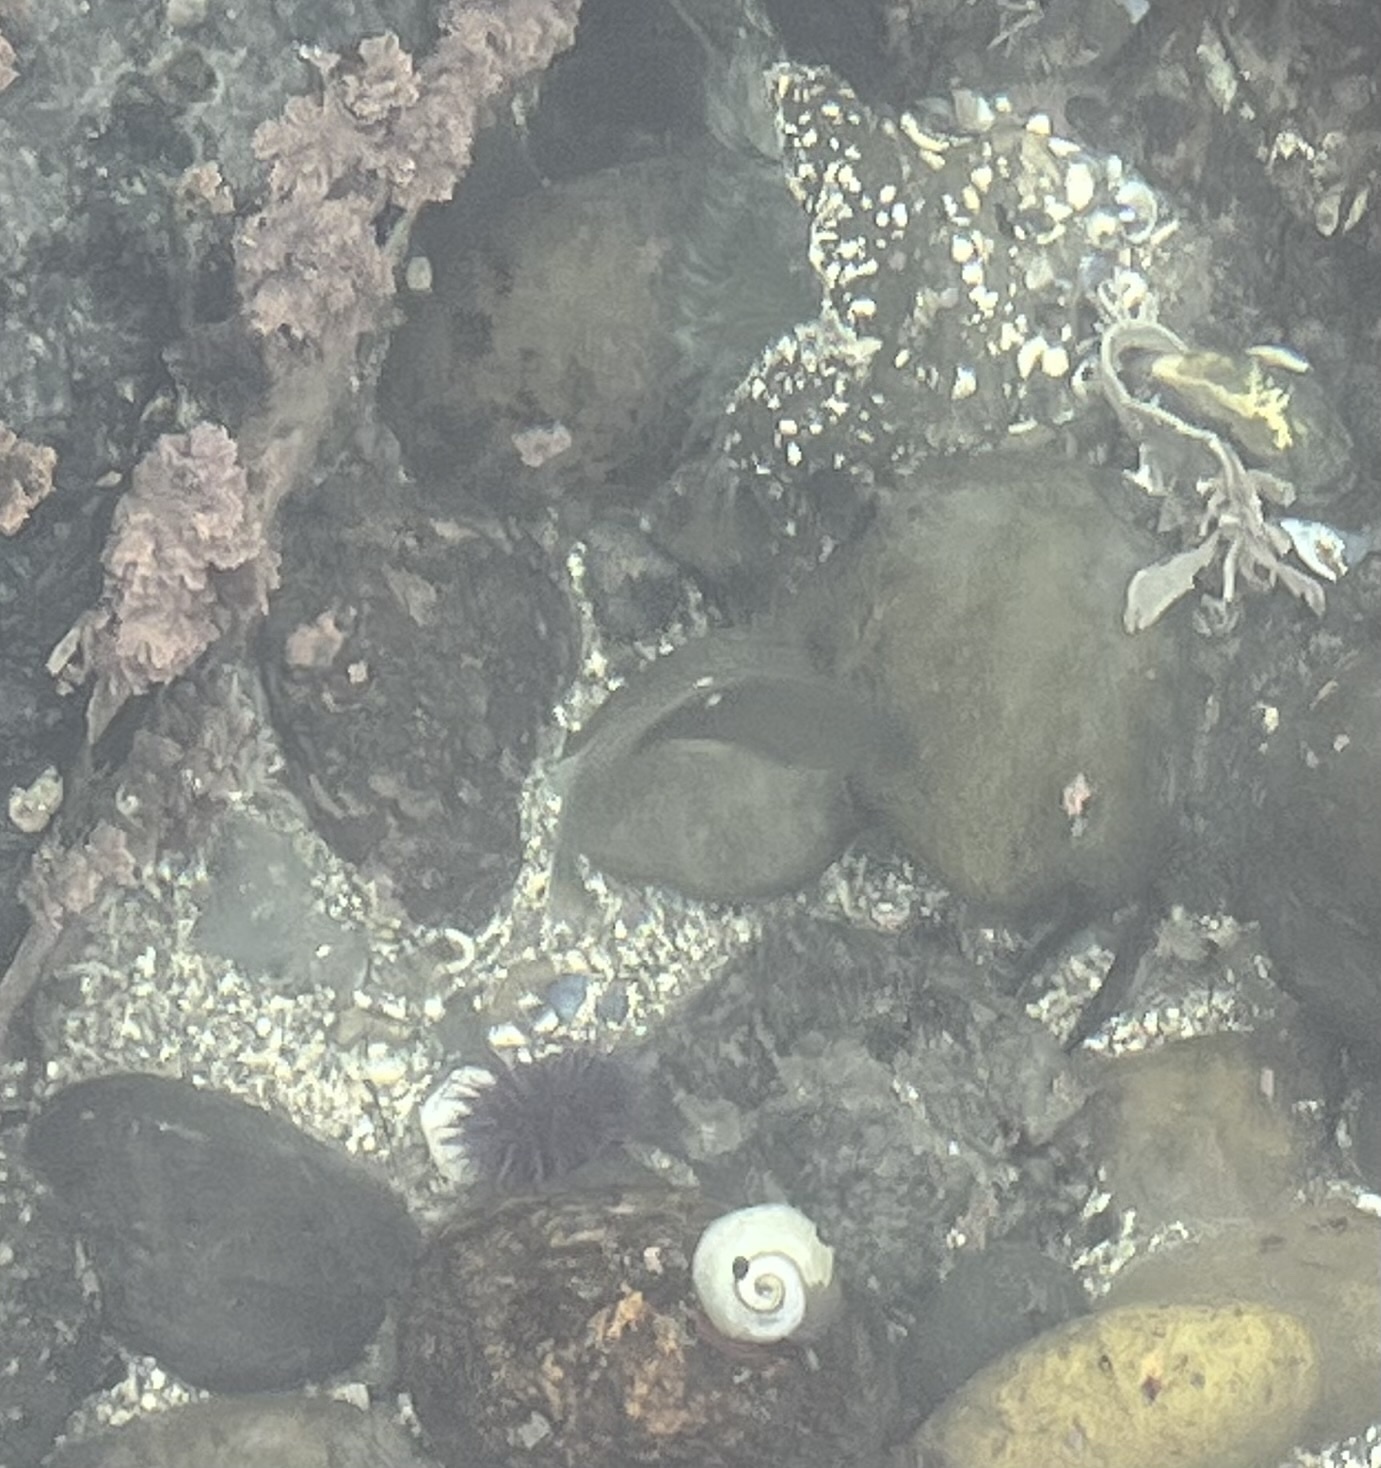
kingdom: Animalia
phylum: Chordata
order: Perciformes
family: Kyphosidae
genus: Girella
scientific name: Girella nigricans
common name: Opaleye
